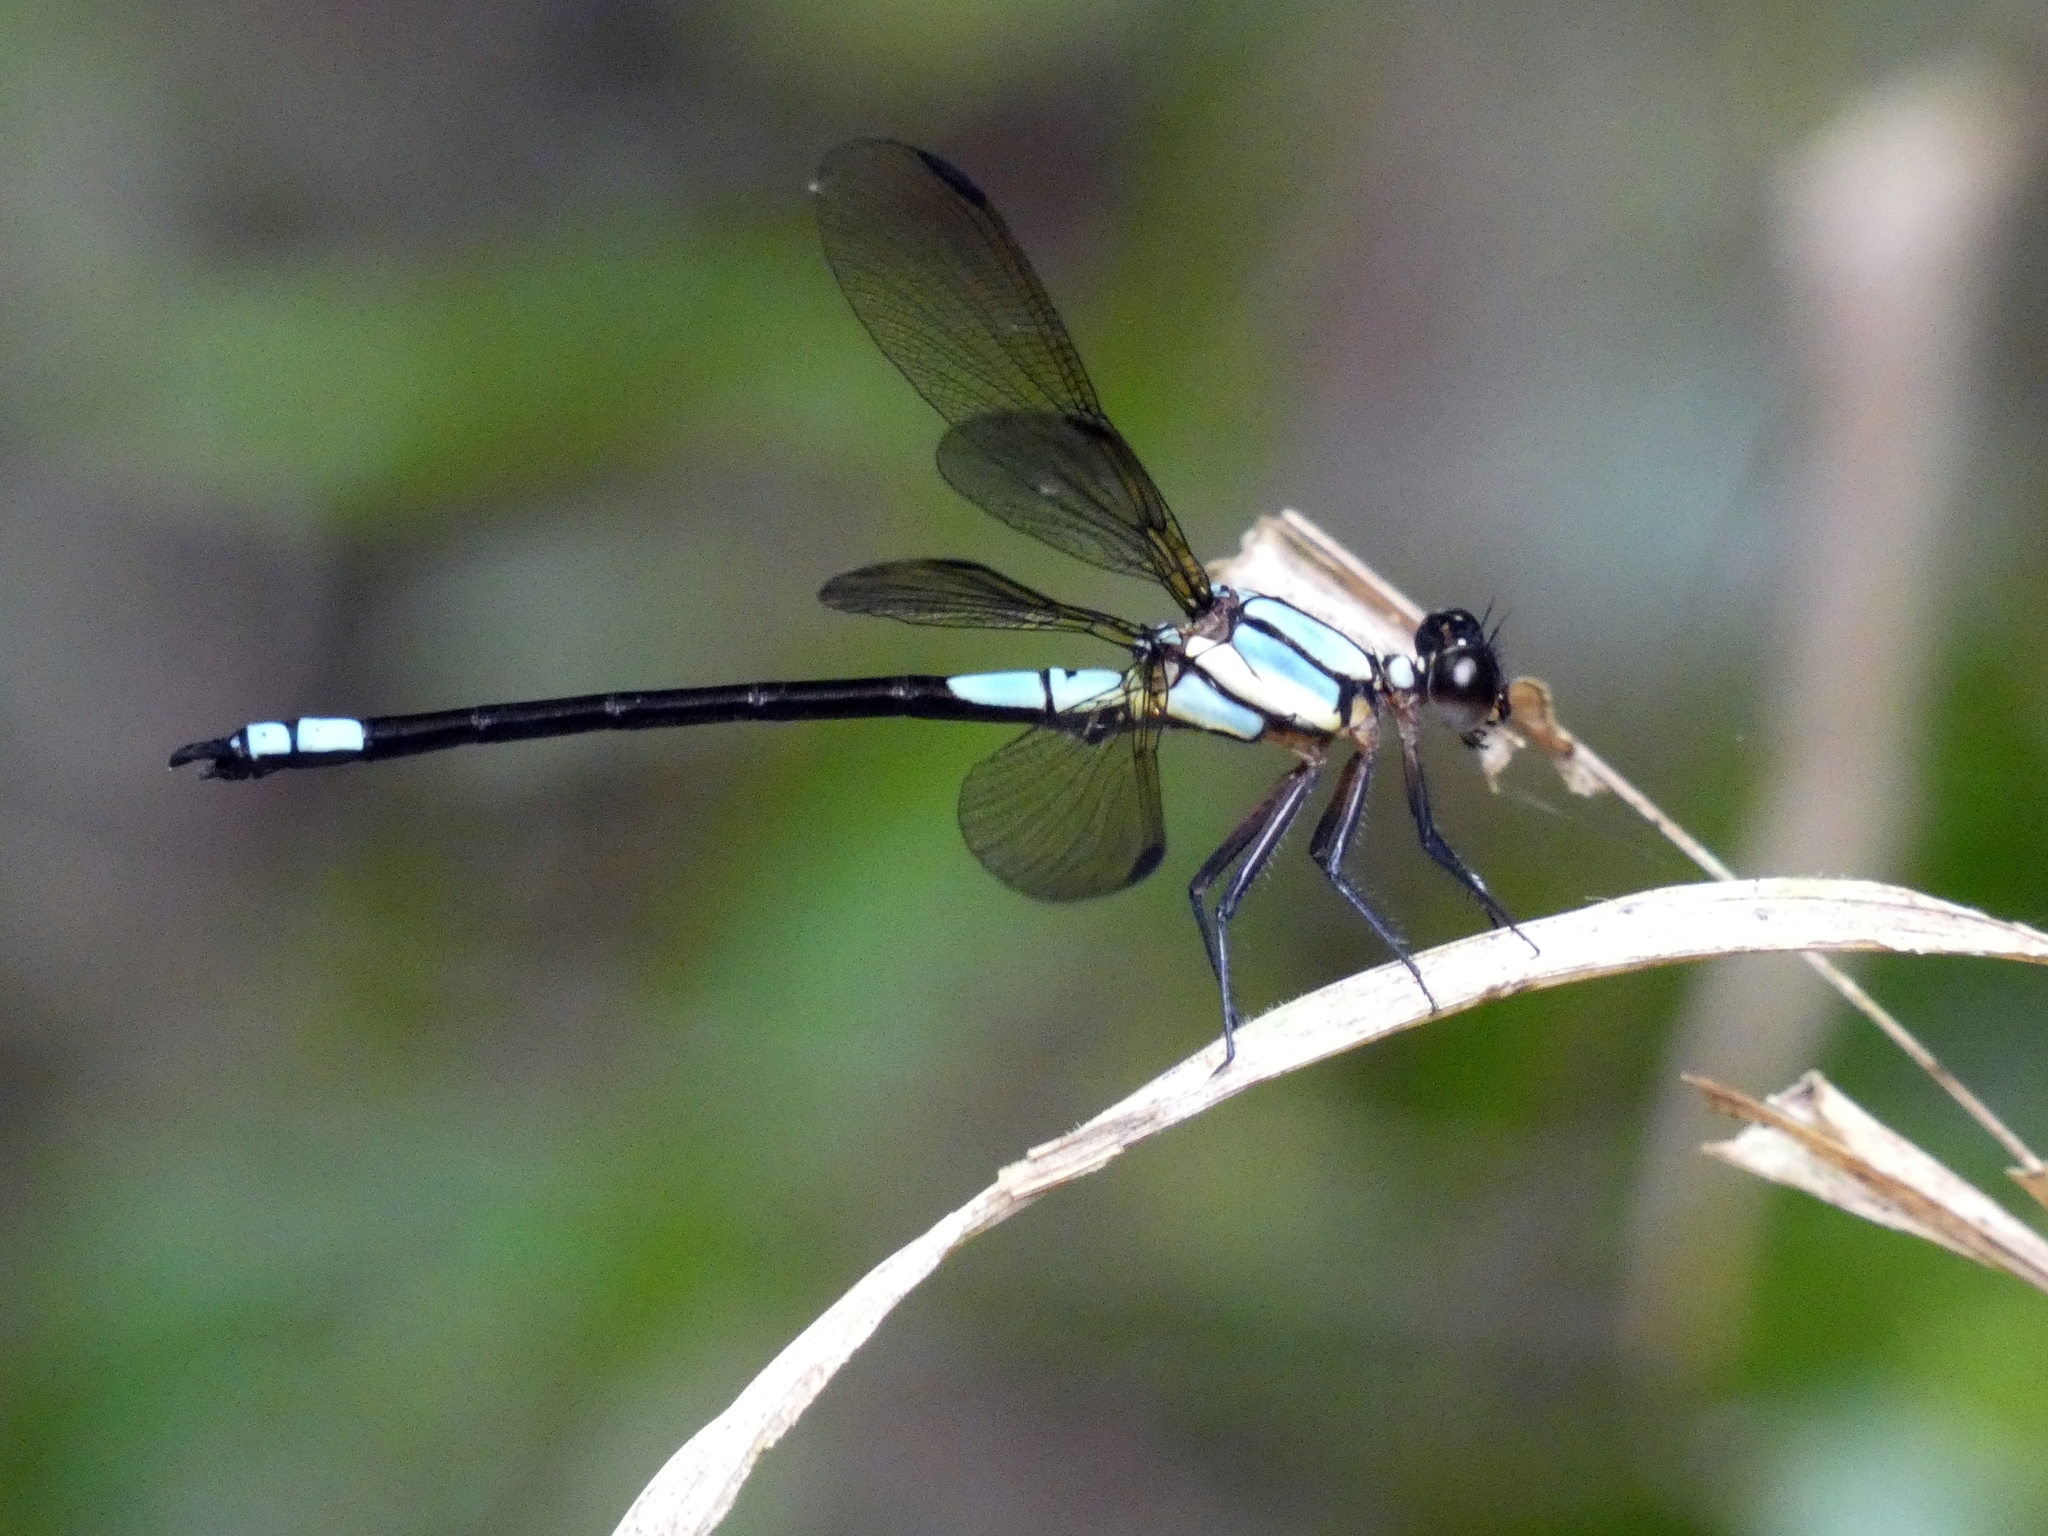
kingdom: Animalia
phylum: Arthropoda
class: Insecta
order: Odonata
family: Lestoideidae
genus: Diphlebia
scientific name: Diphlebia euphoeoides
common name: Tropical rockmaster
